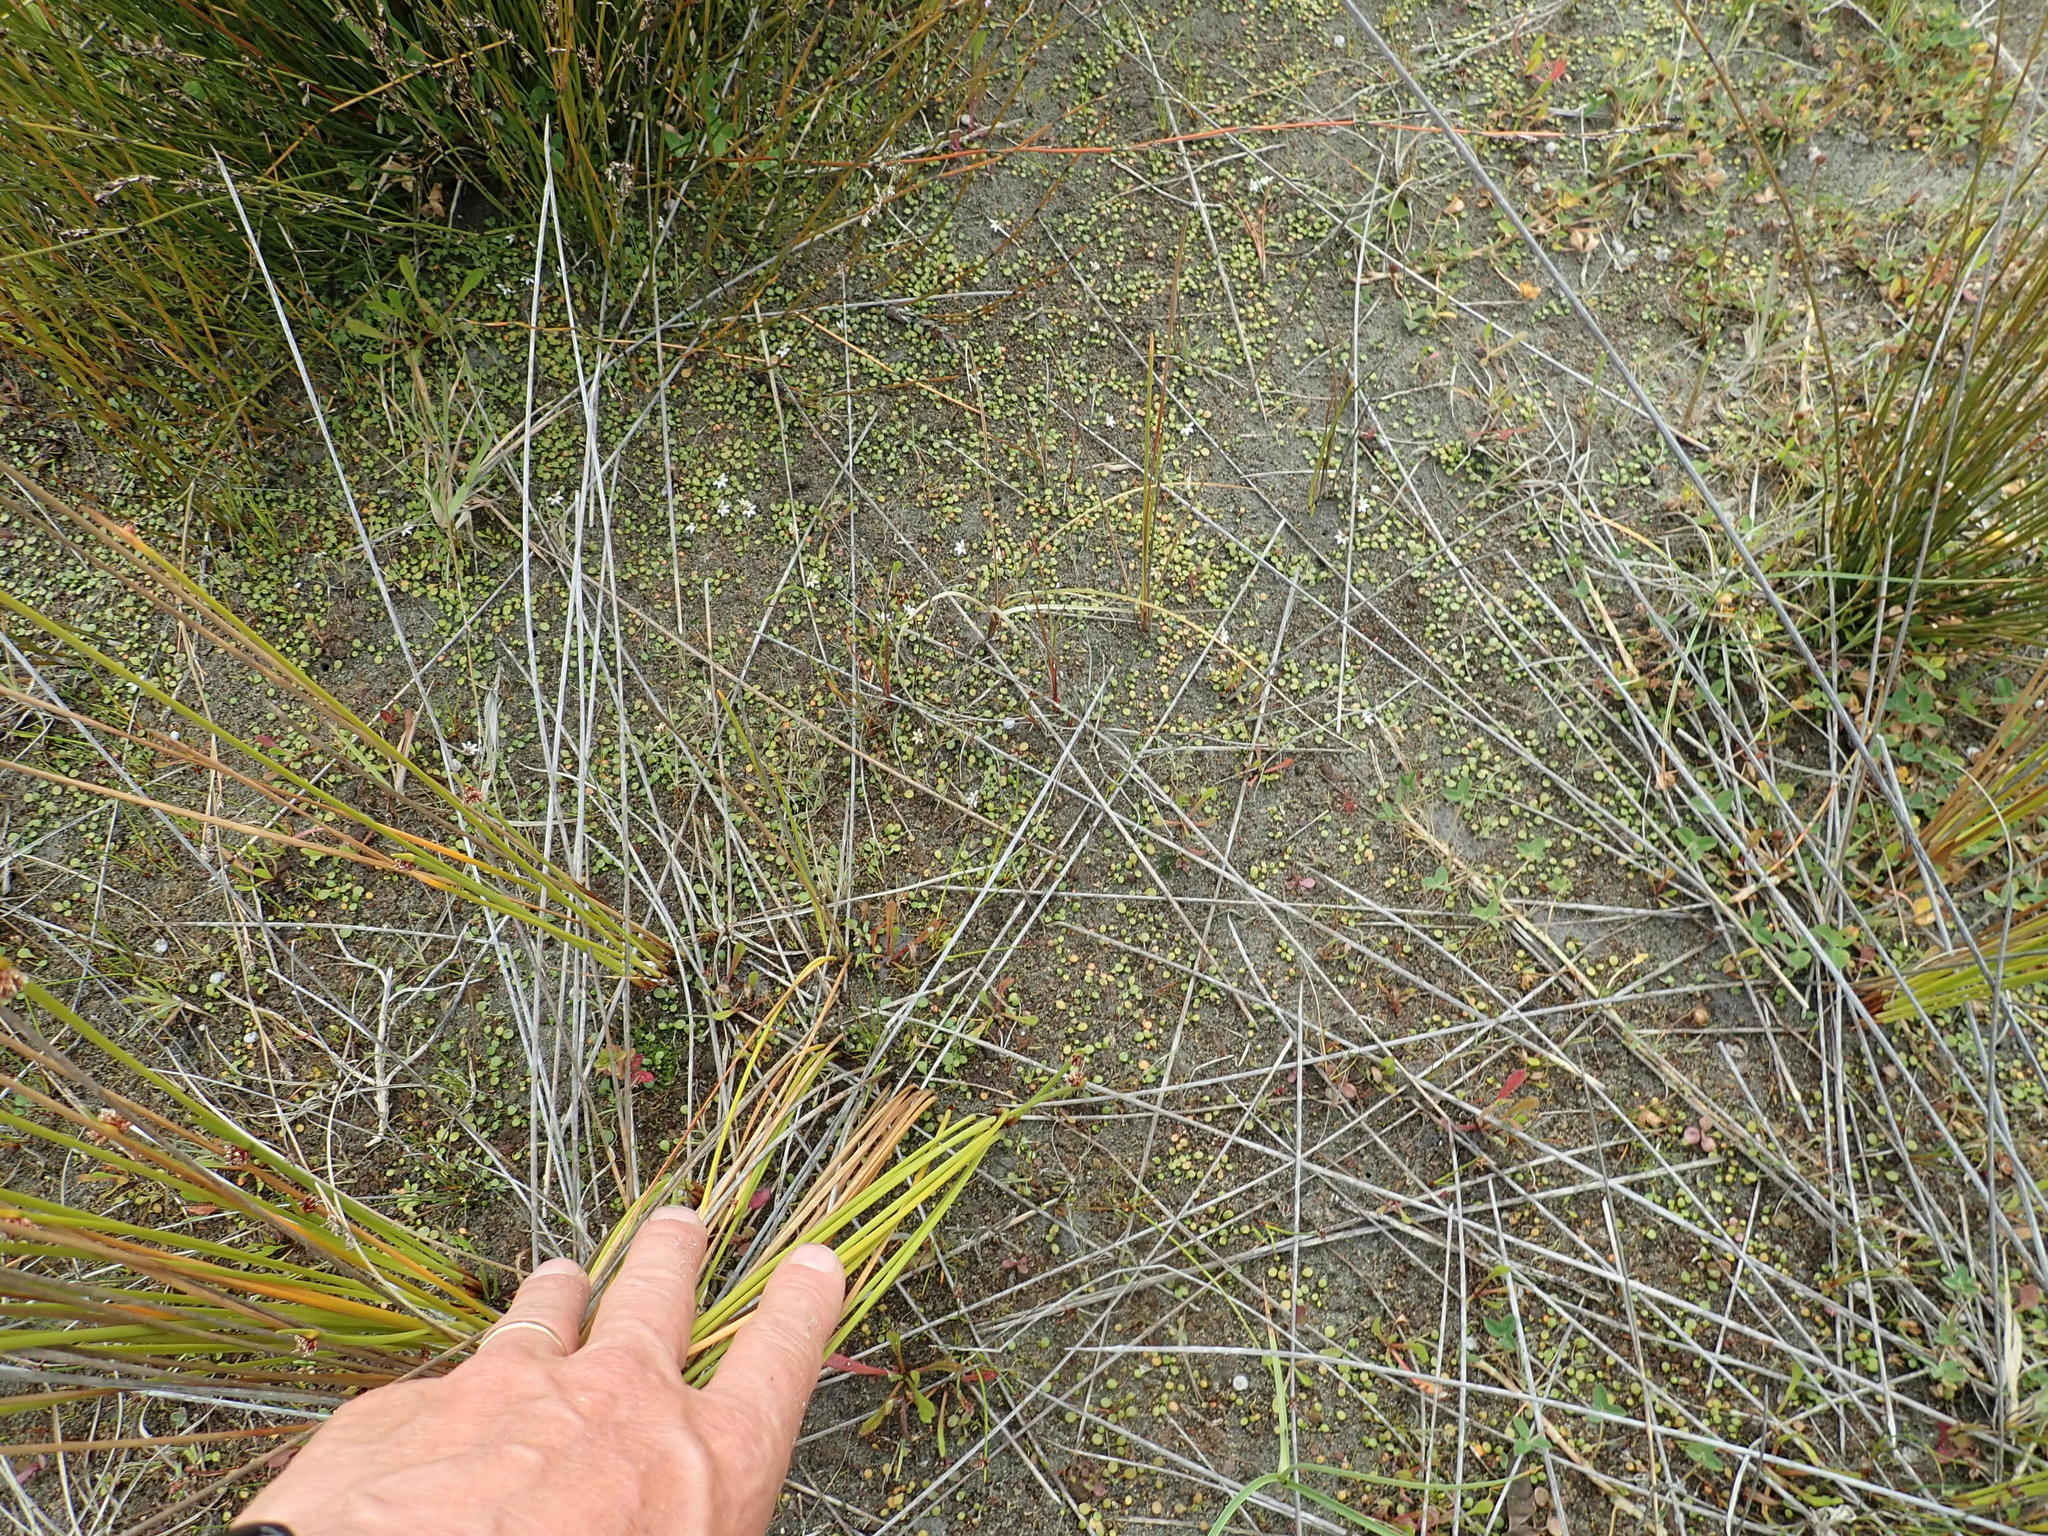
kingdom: Plantae
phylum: Tracheophyta
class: Magnoliopsida
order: Asterales
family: Goodeniaceae
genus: Goodenia
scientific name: Goodenia heenanii
